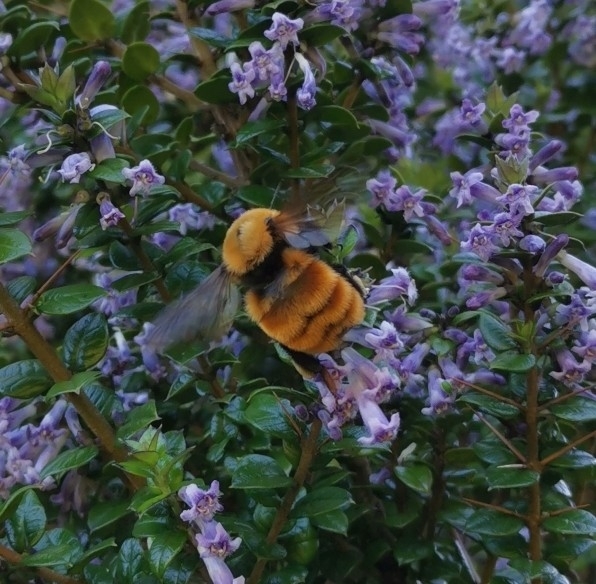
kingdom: Animalia
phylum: Arthropoda
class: Insecta
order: Hymenoptera
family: Apidae
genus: Bombus
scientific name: Bombus dahlbomii
